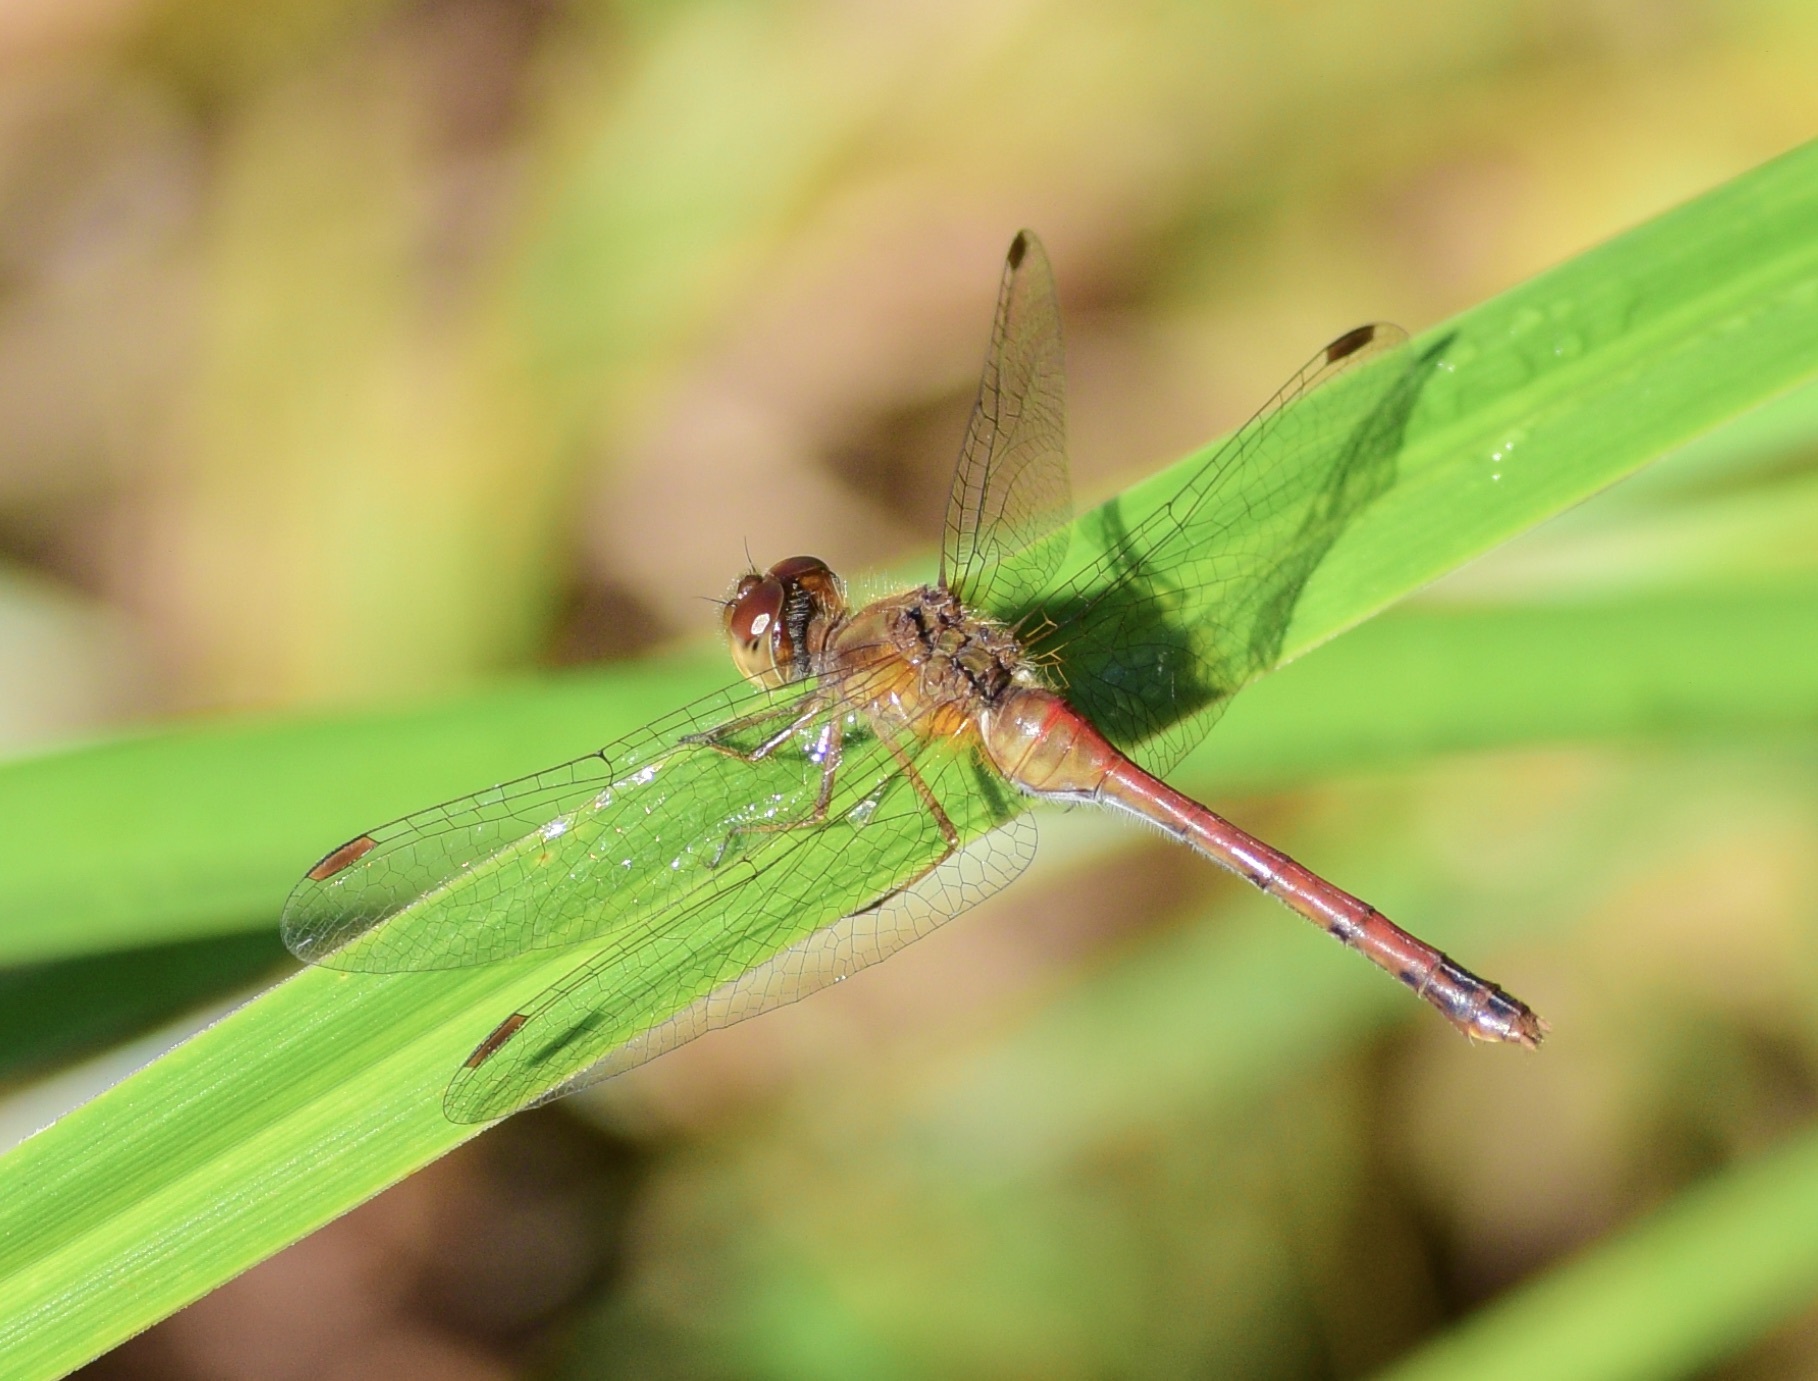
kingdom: Animalia
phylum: Arthropoda
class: Insecta
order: Odonata
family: Libellulidae
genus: Sympetrum
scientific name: Sympetrum vicinum
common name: Autumn meadowhawk
